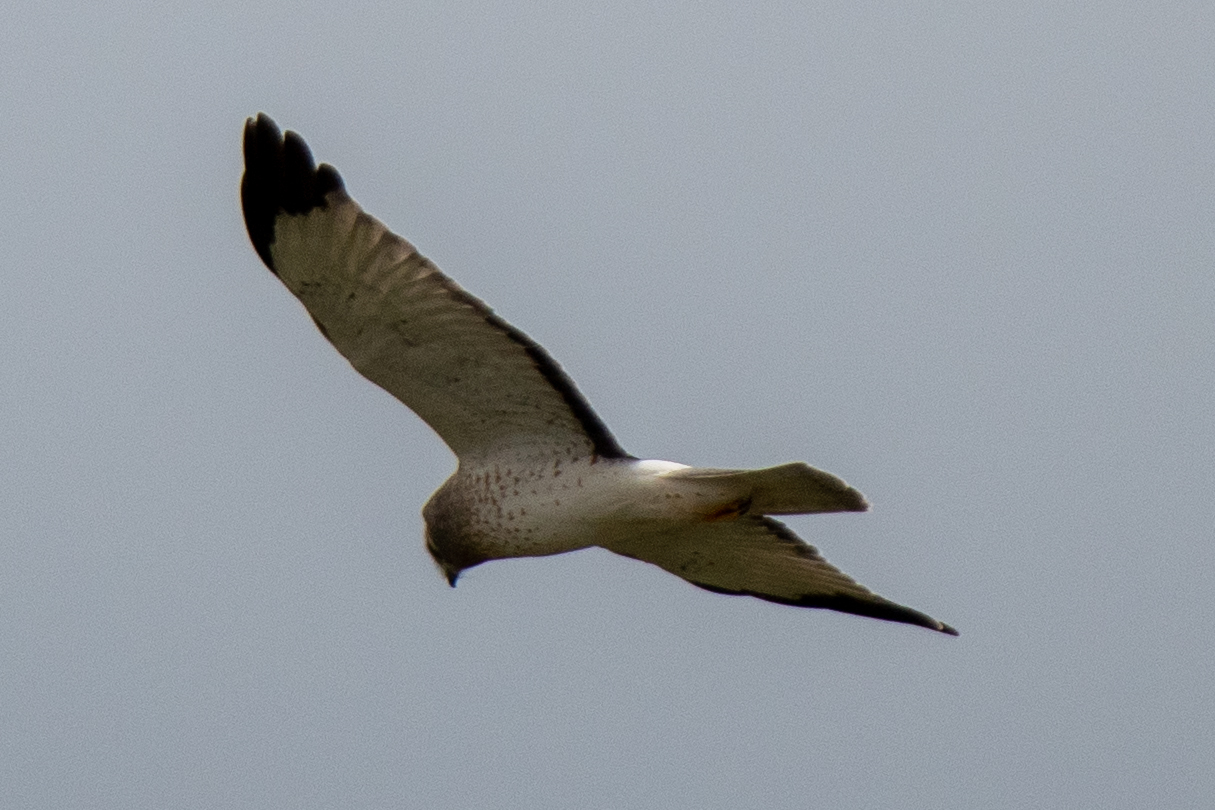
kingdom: Animalia
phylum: Chordata
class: Aves
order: Accipitriformes
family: Accipitridae
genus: Circus
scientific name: Circus cyaneus
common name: Hen harrier
